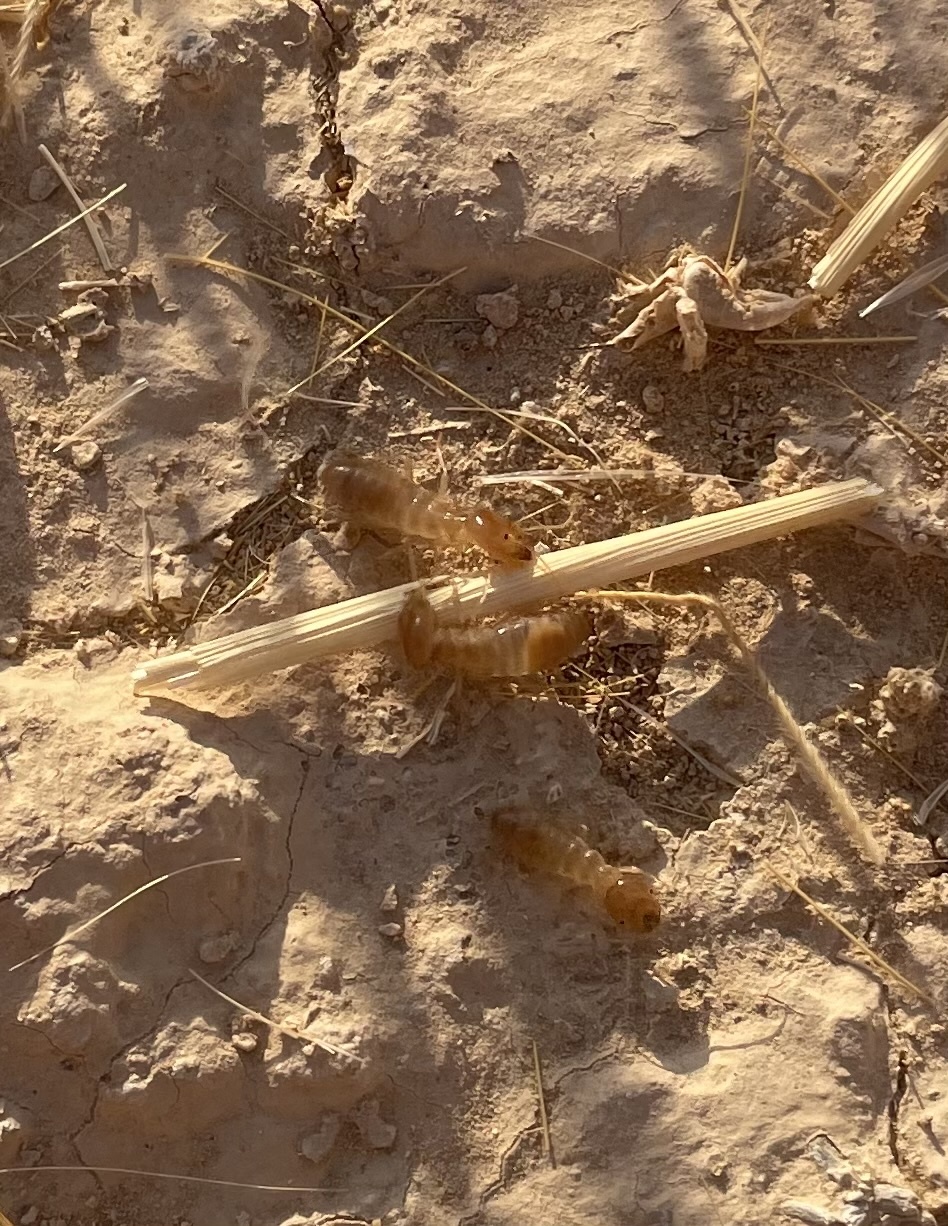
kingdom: Animalia
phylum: Arthropoda
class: Insecta
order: Blattodea
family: Hodotermitidae
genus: Anacanthotermes
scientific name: Anacanthotermes ubachi
